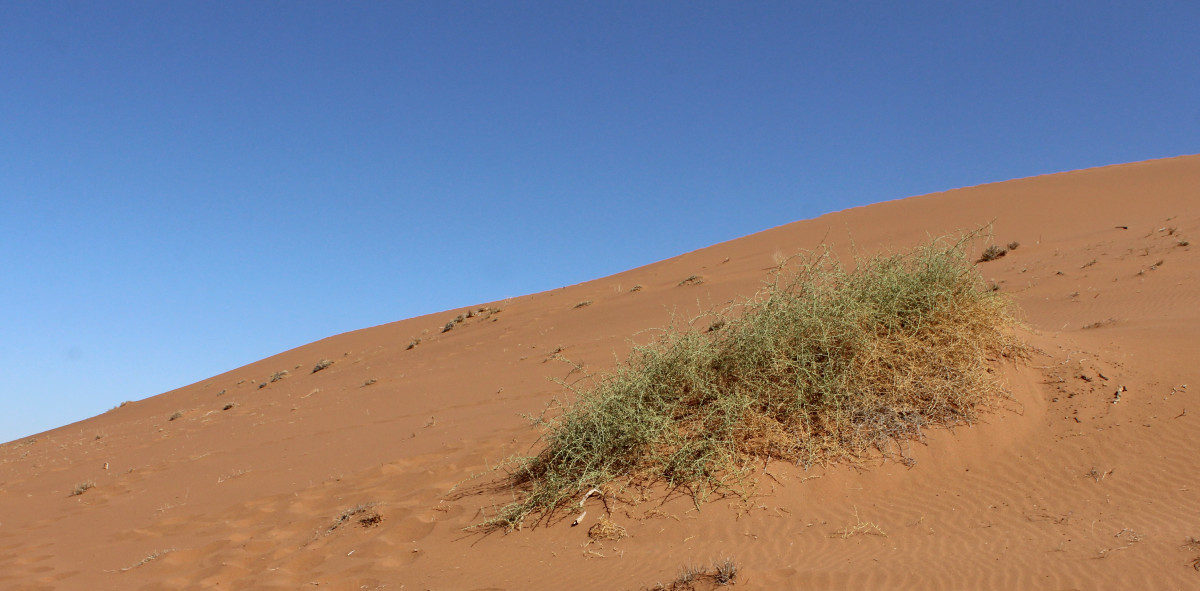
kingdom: Plantae
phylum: Tracheophyta
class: Magnoliopsida
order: Cucurbitales
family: Cucurbitaceae
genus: Acanthosicyos
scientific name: Acanthosicyos horridus
